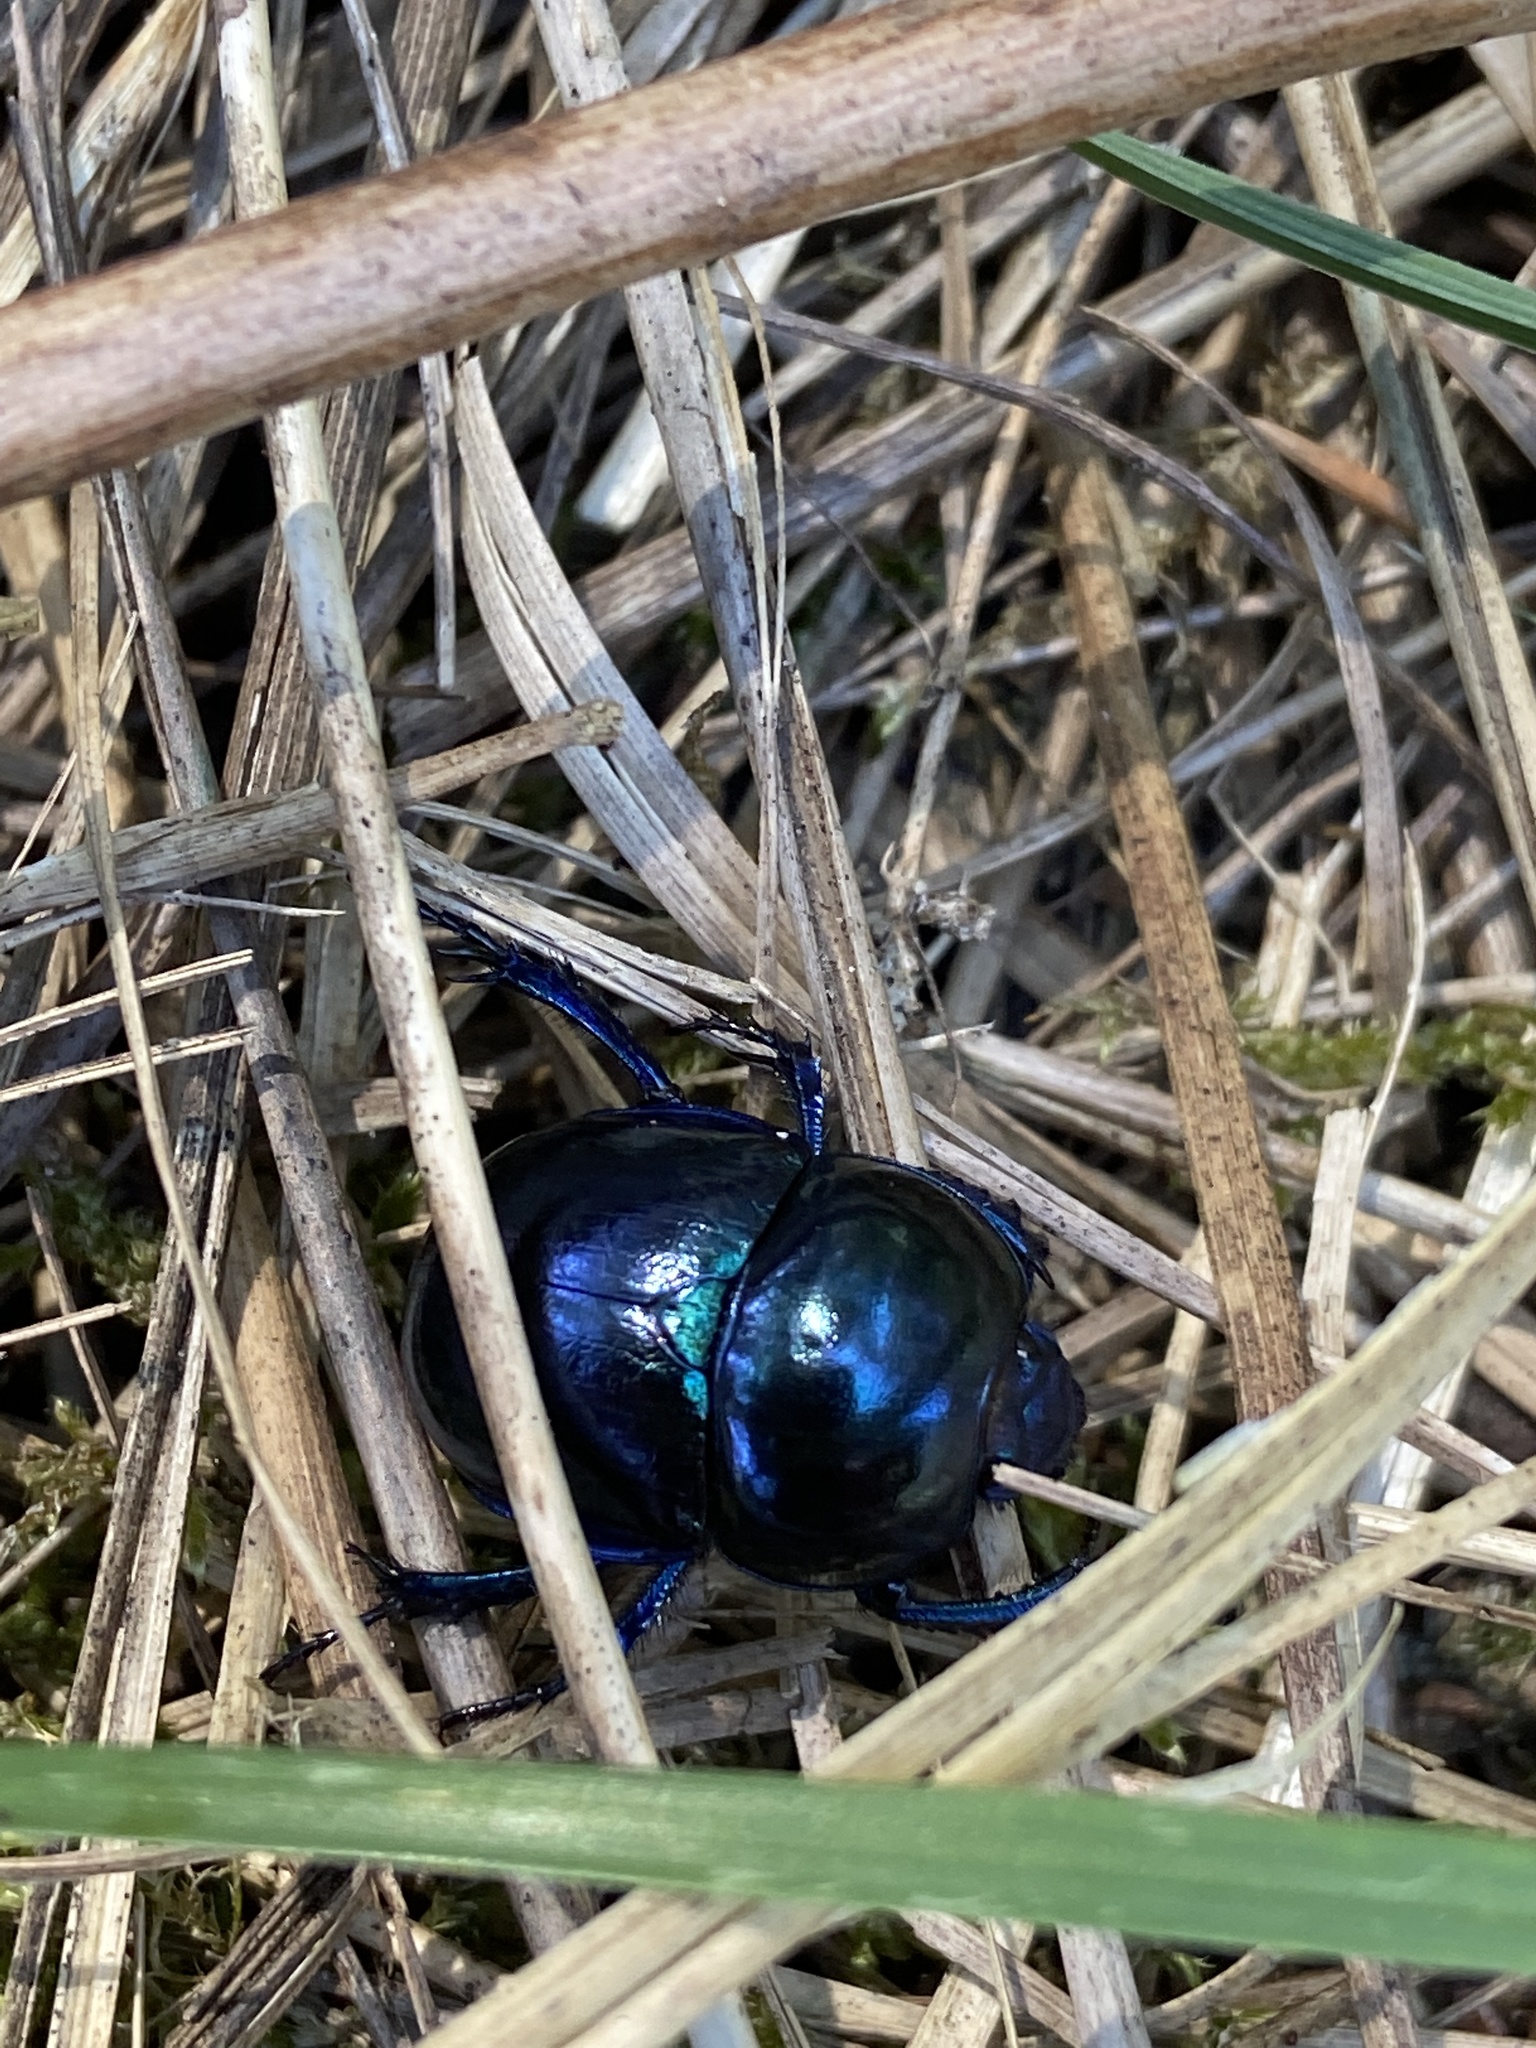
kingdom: Animalia
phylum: Arthropoda
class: Insecta
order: Coleoptera
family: Geotrupidae
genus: Trypocopris
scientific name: Trypocopris vernalis
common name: Spring dumbledor
